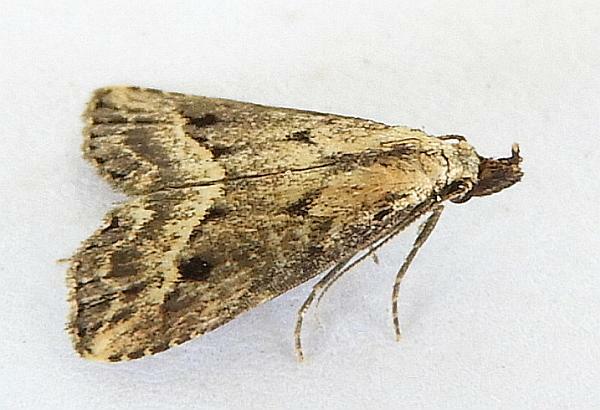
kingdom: Animalia
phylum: Arthropoda
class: Insecta
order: Lepidoptera
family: Erebidae
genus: Schrankia
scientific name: Schrankia
